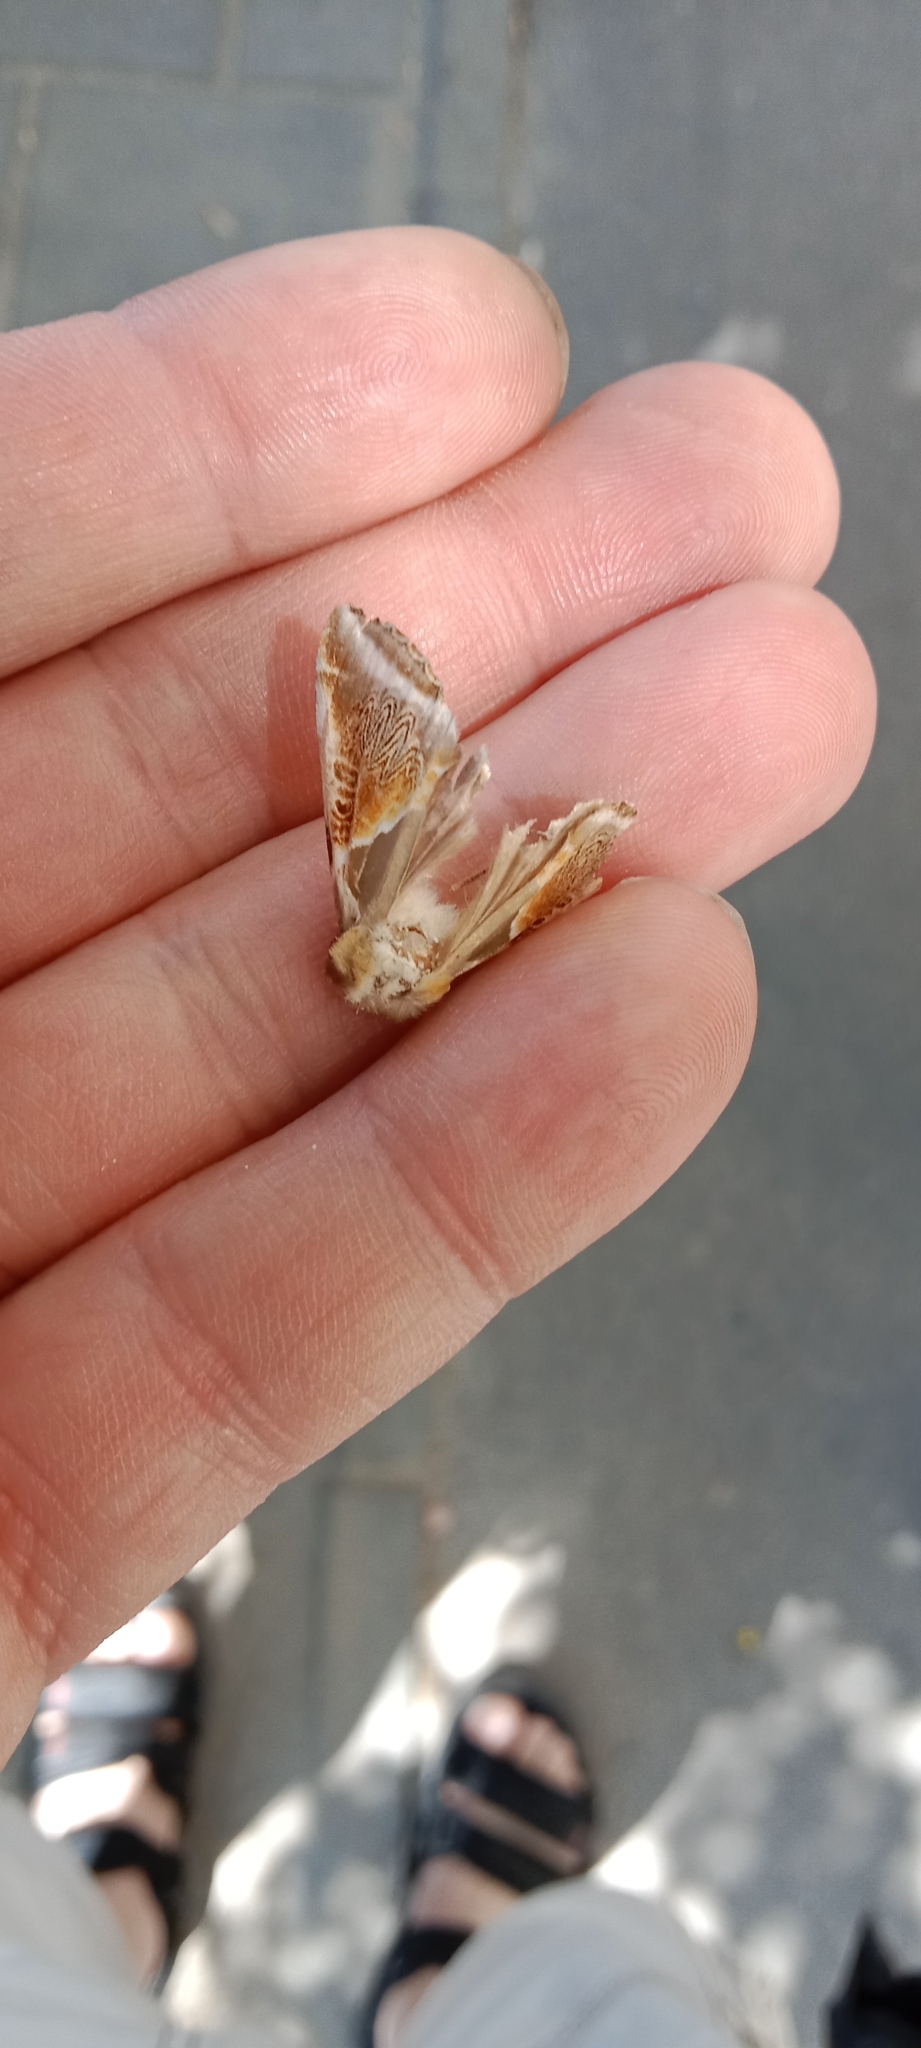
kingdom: Animalia
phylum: Arthropoda
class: Insecta
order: Lepidoptera
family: Drepanidae
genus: Habrosyne
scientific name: Habrosyne pyritoides
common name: Buff arches
